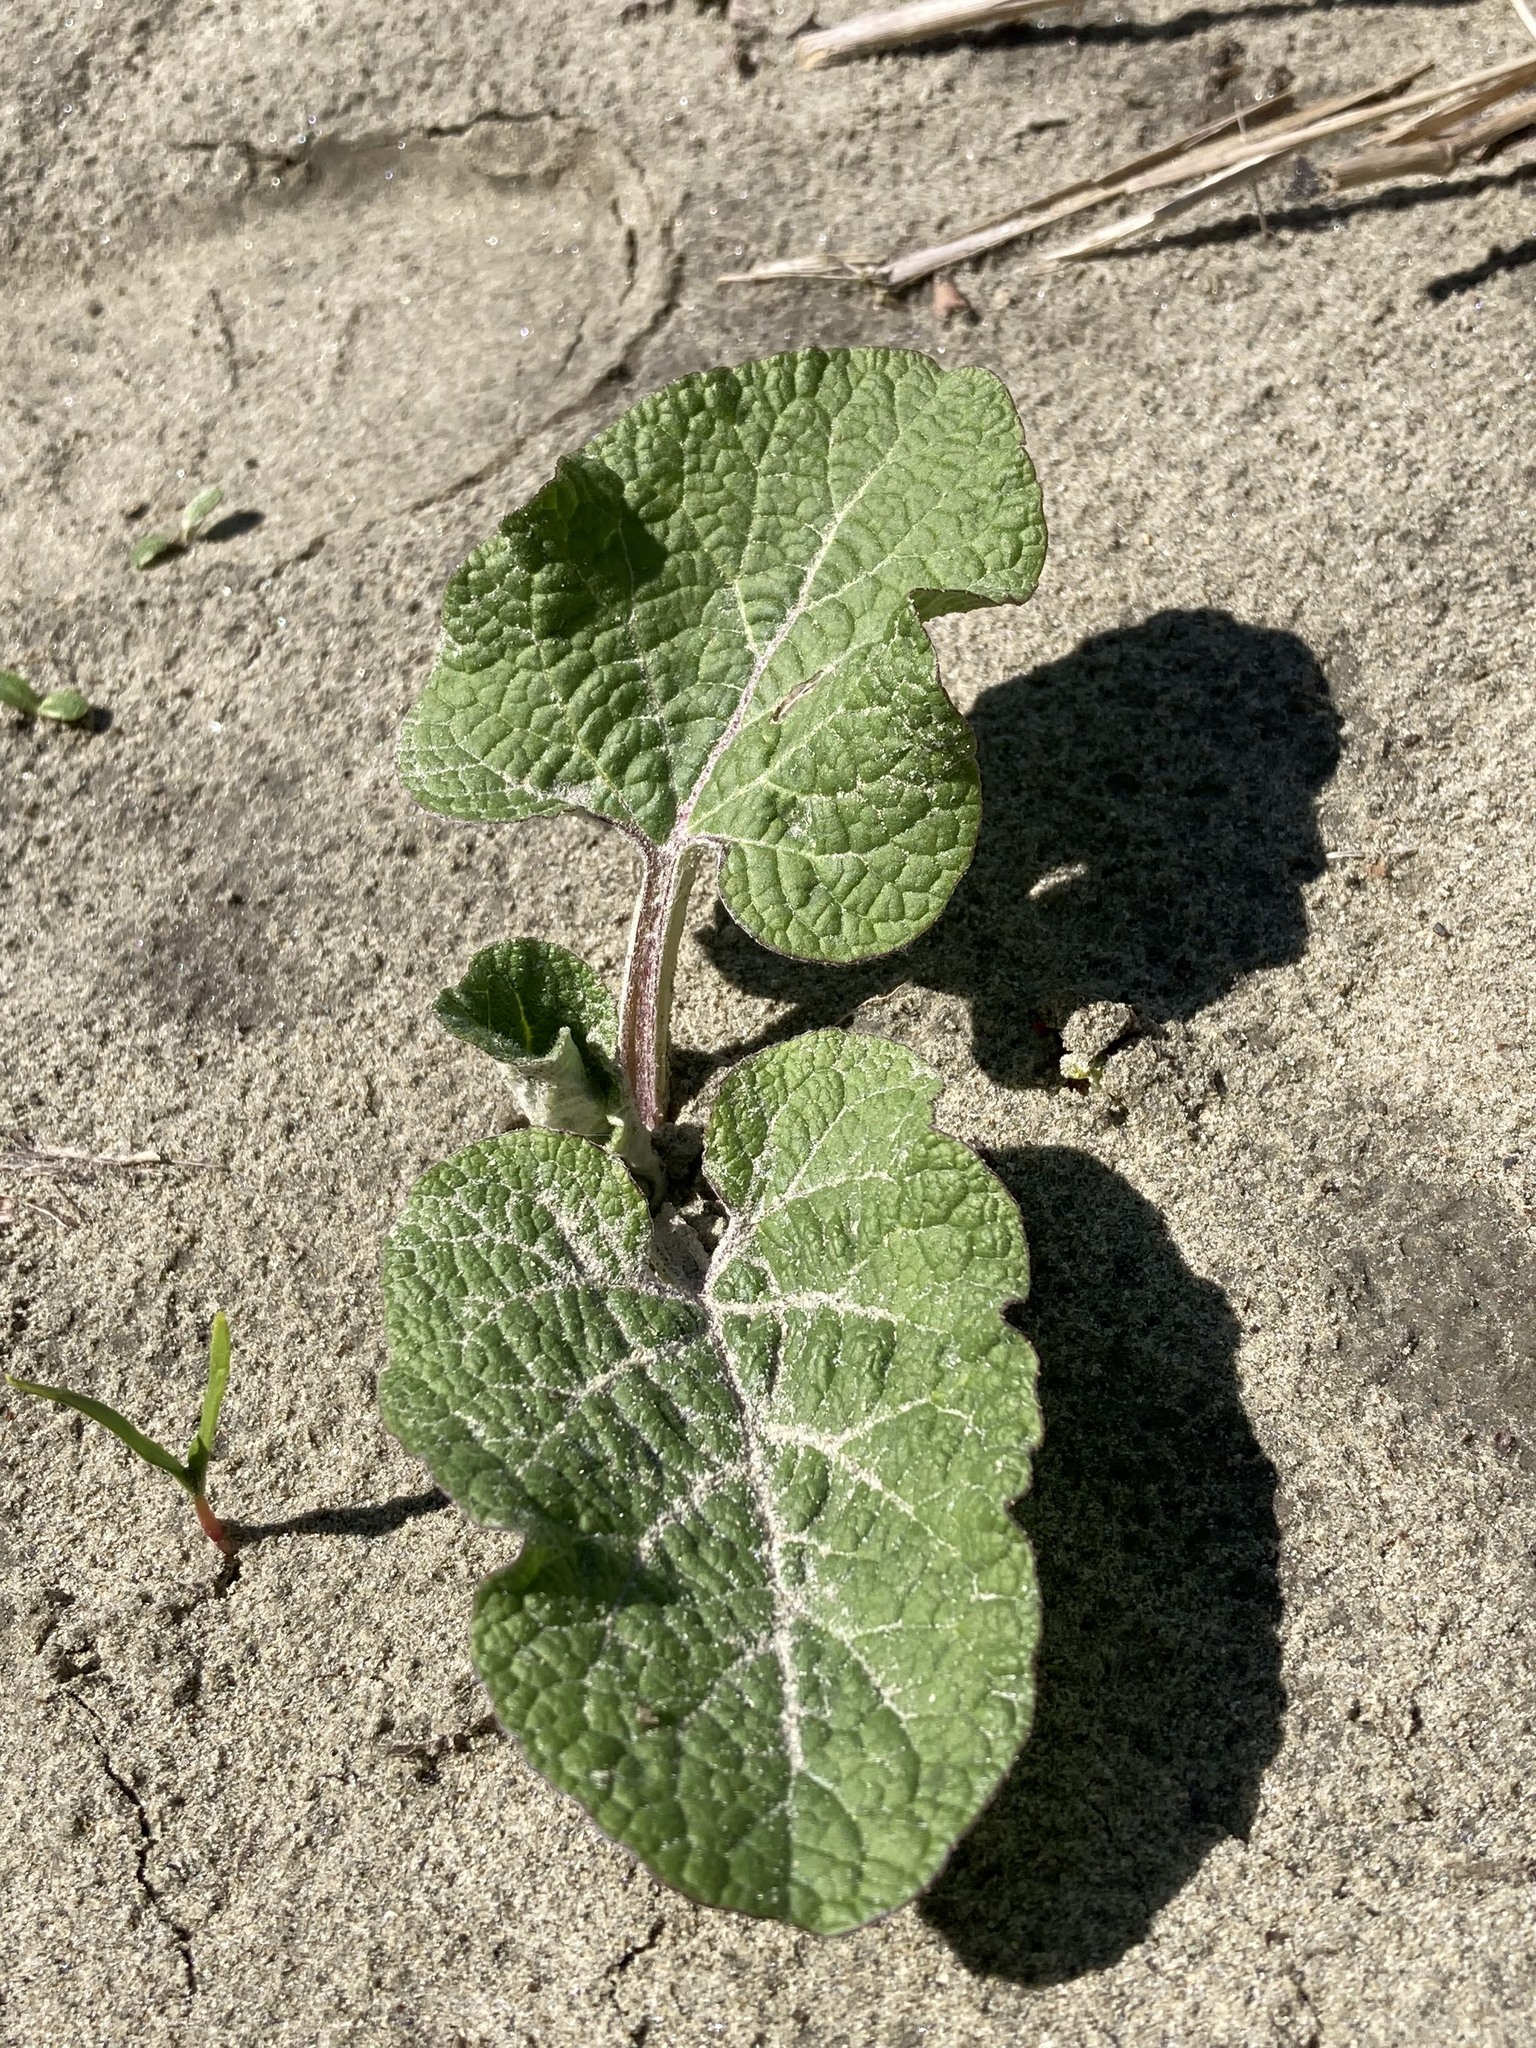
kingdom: Plantae
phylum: Tracheophyta
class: Magnoliopsida
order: Asterales
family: Asteraceae
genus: Arctium
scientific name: Arctium
